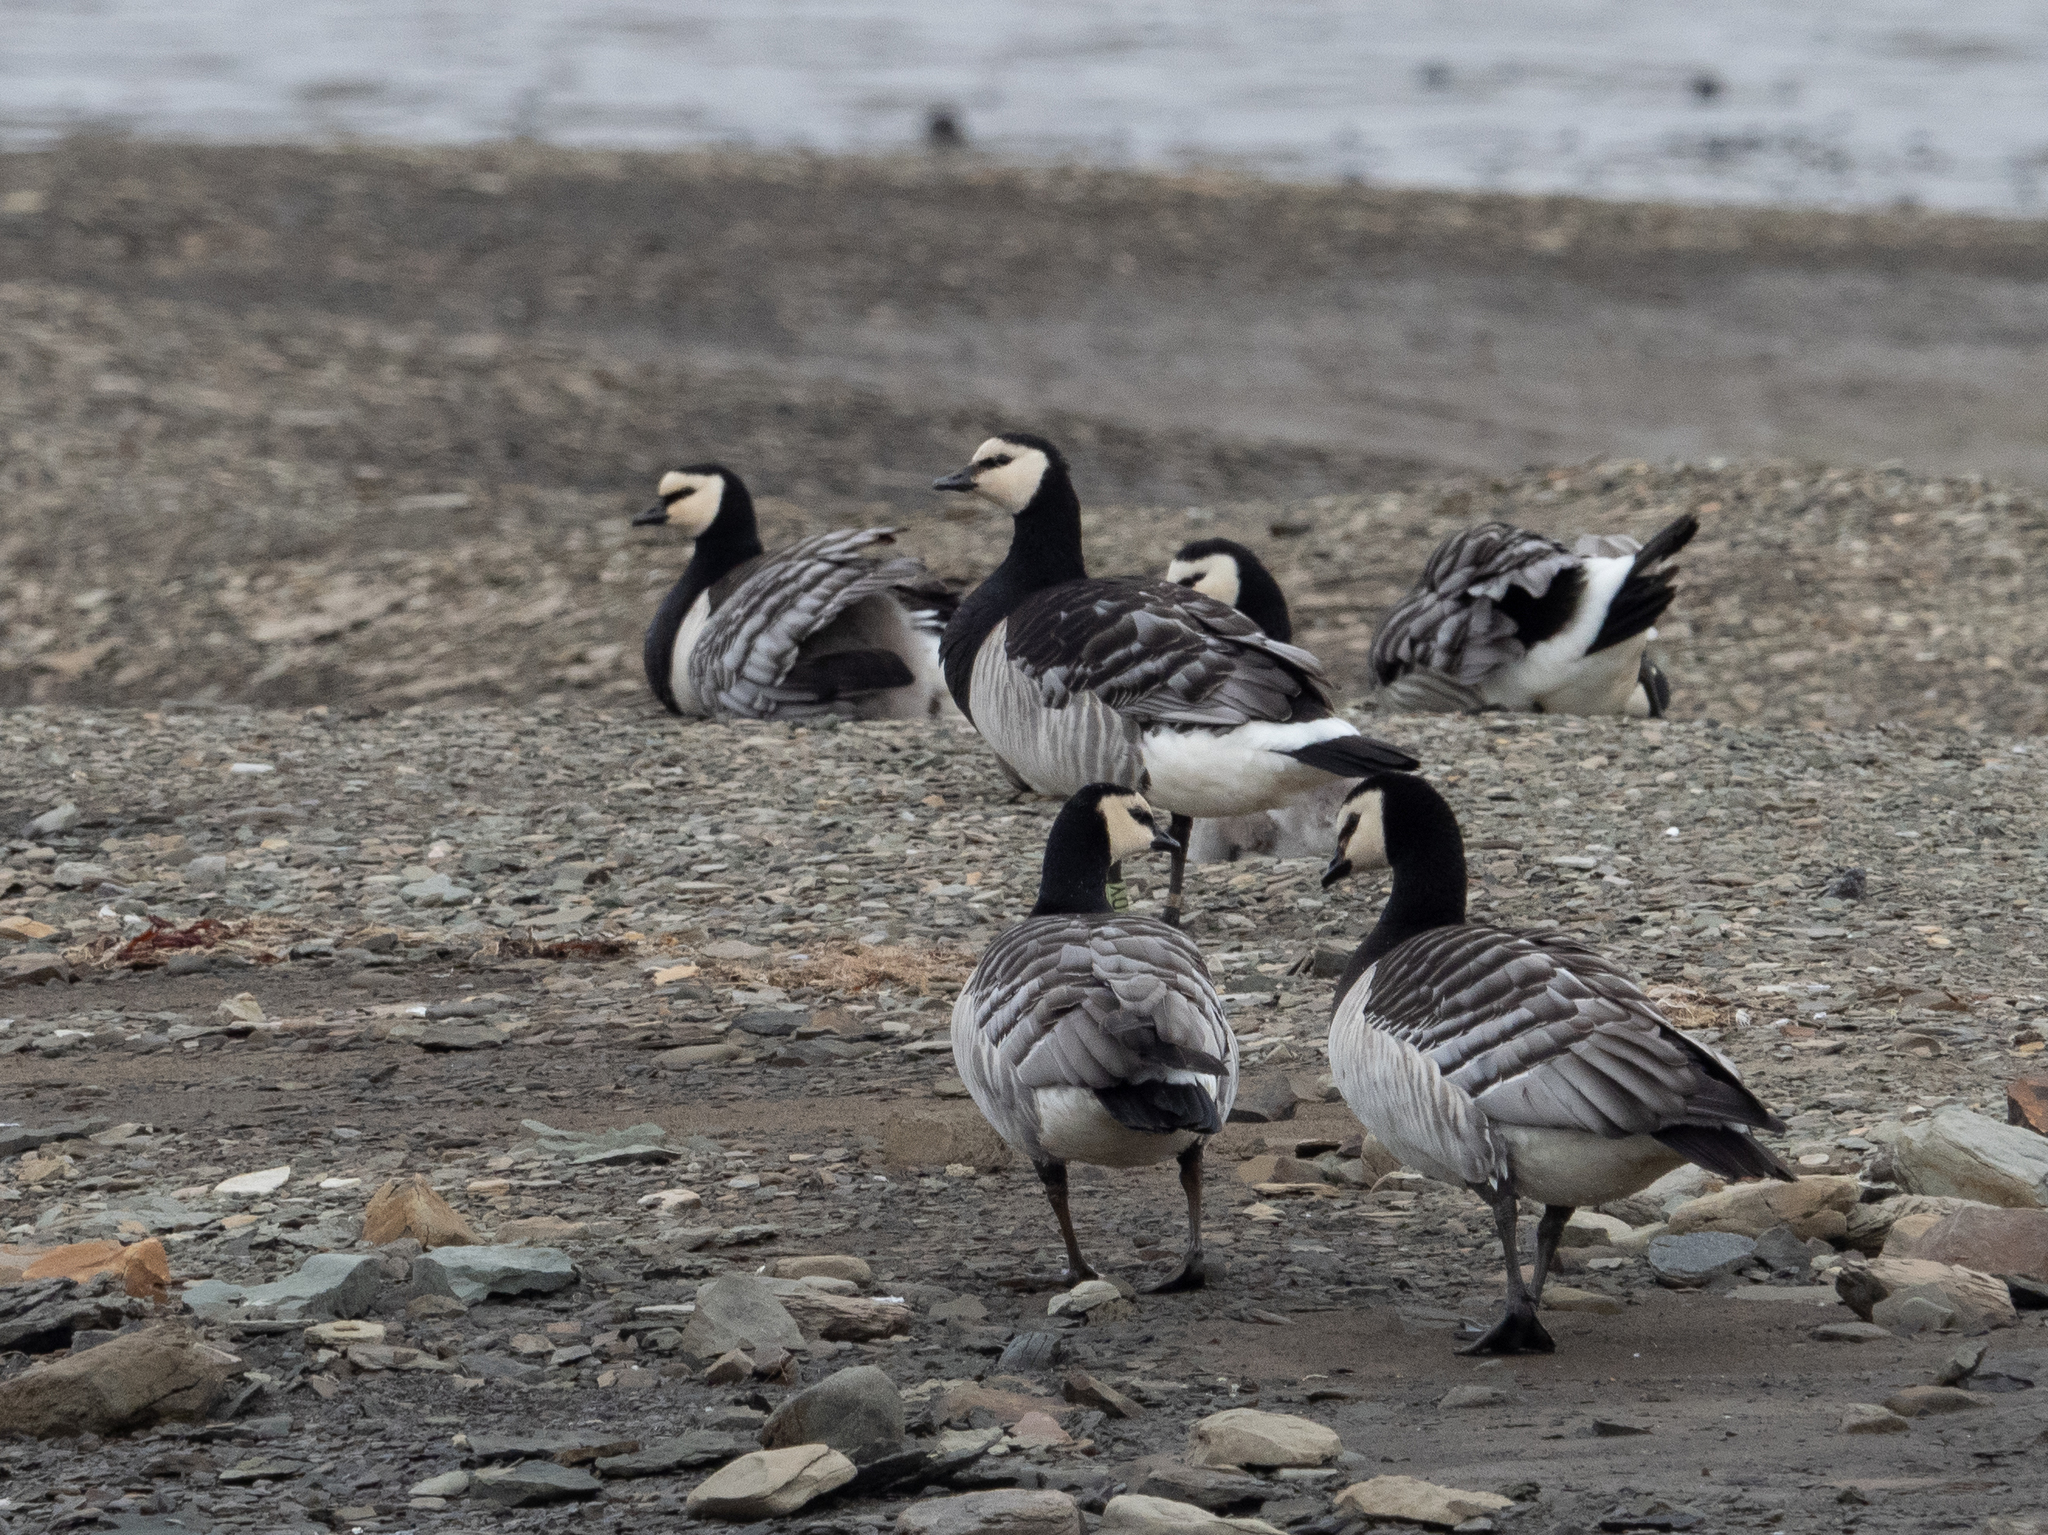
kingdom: Animalia
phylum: Chordata
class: Aves
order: Anseriformes
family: Anatidae
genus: Branta
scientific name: Branta leucopsis
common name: Barnacle goose
